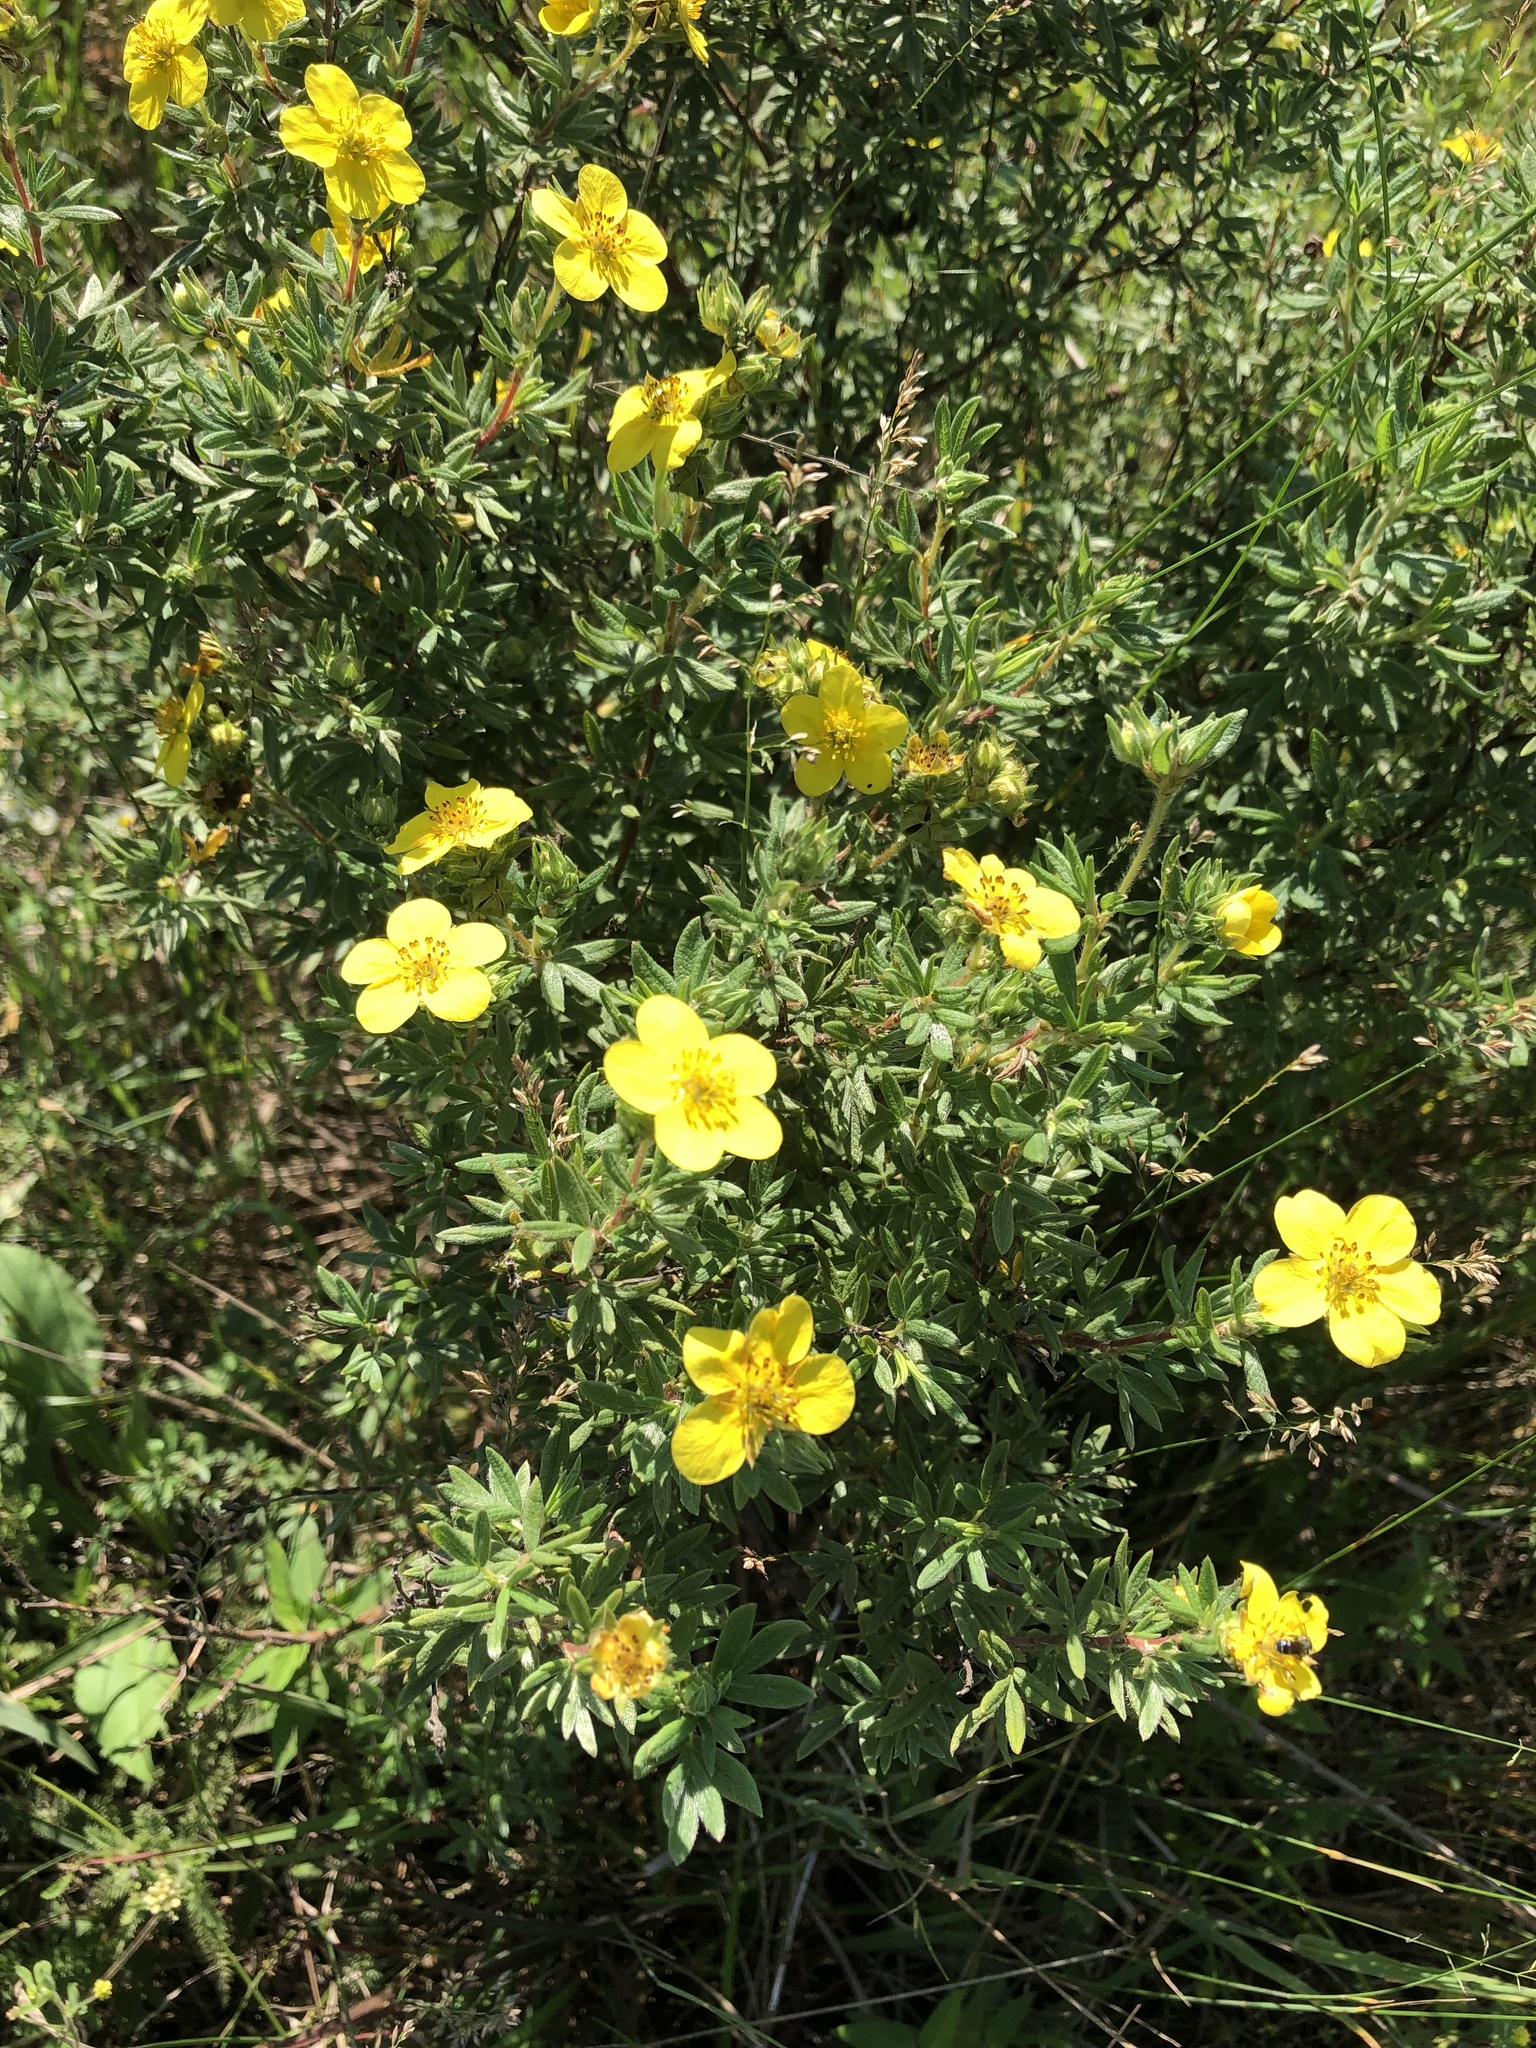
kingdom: Plantae
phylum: Tracheophyta
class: Magnoliopsida
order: Rosales
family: Rosaceae
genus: Dasiphora
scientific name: Dasiphora fruticosa
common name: Shrubby cinquefoil
